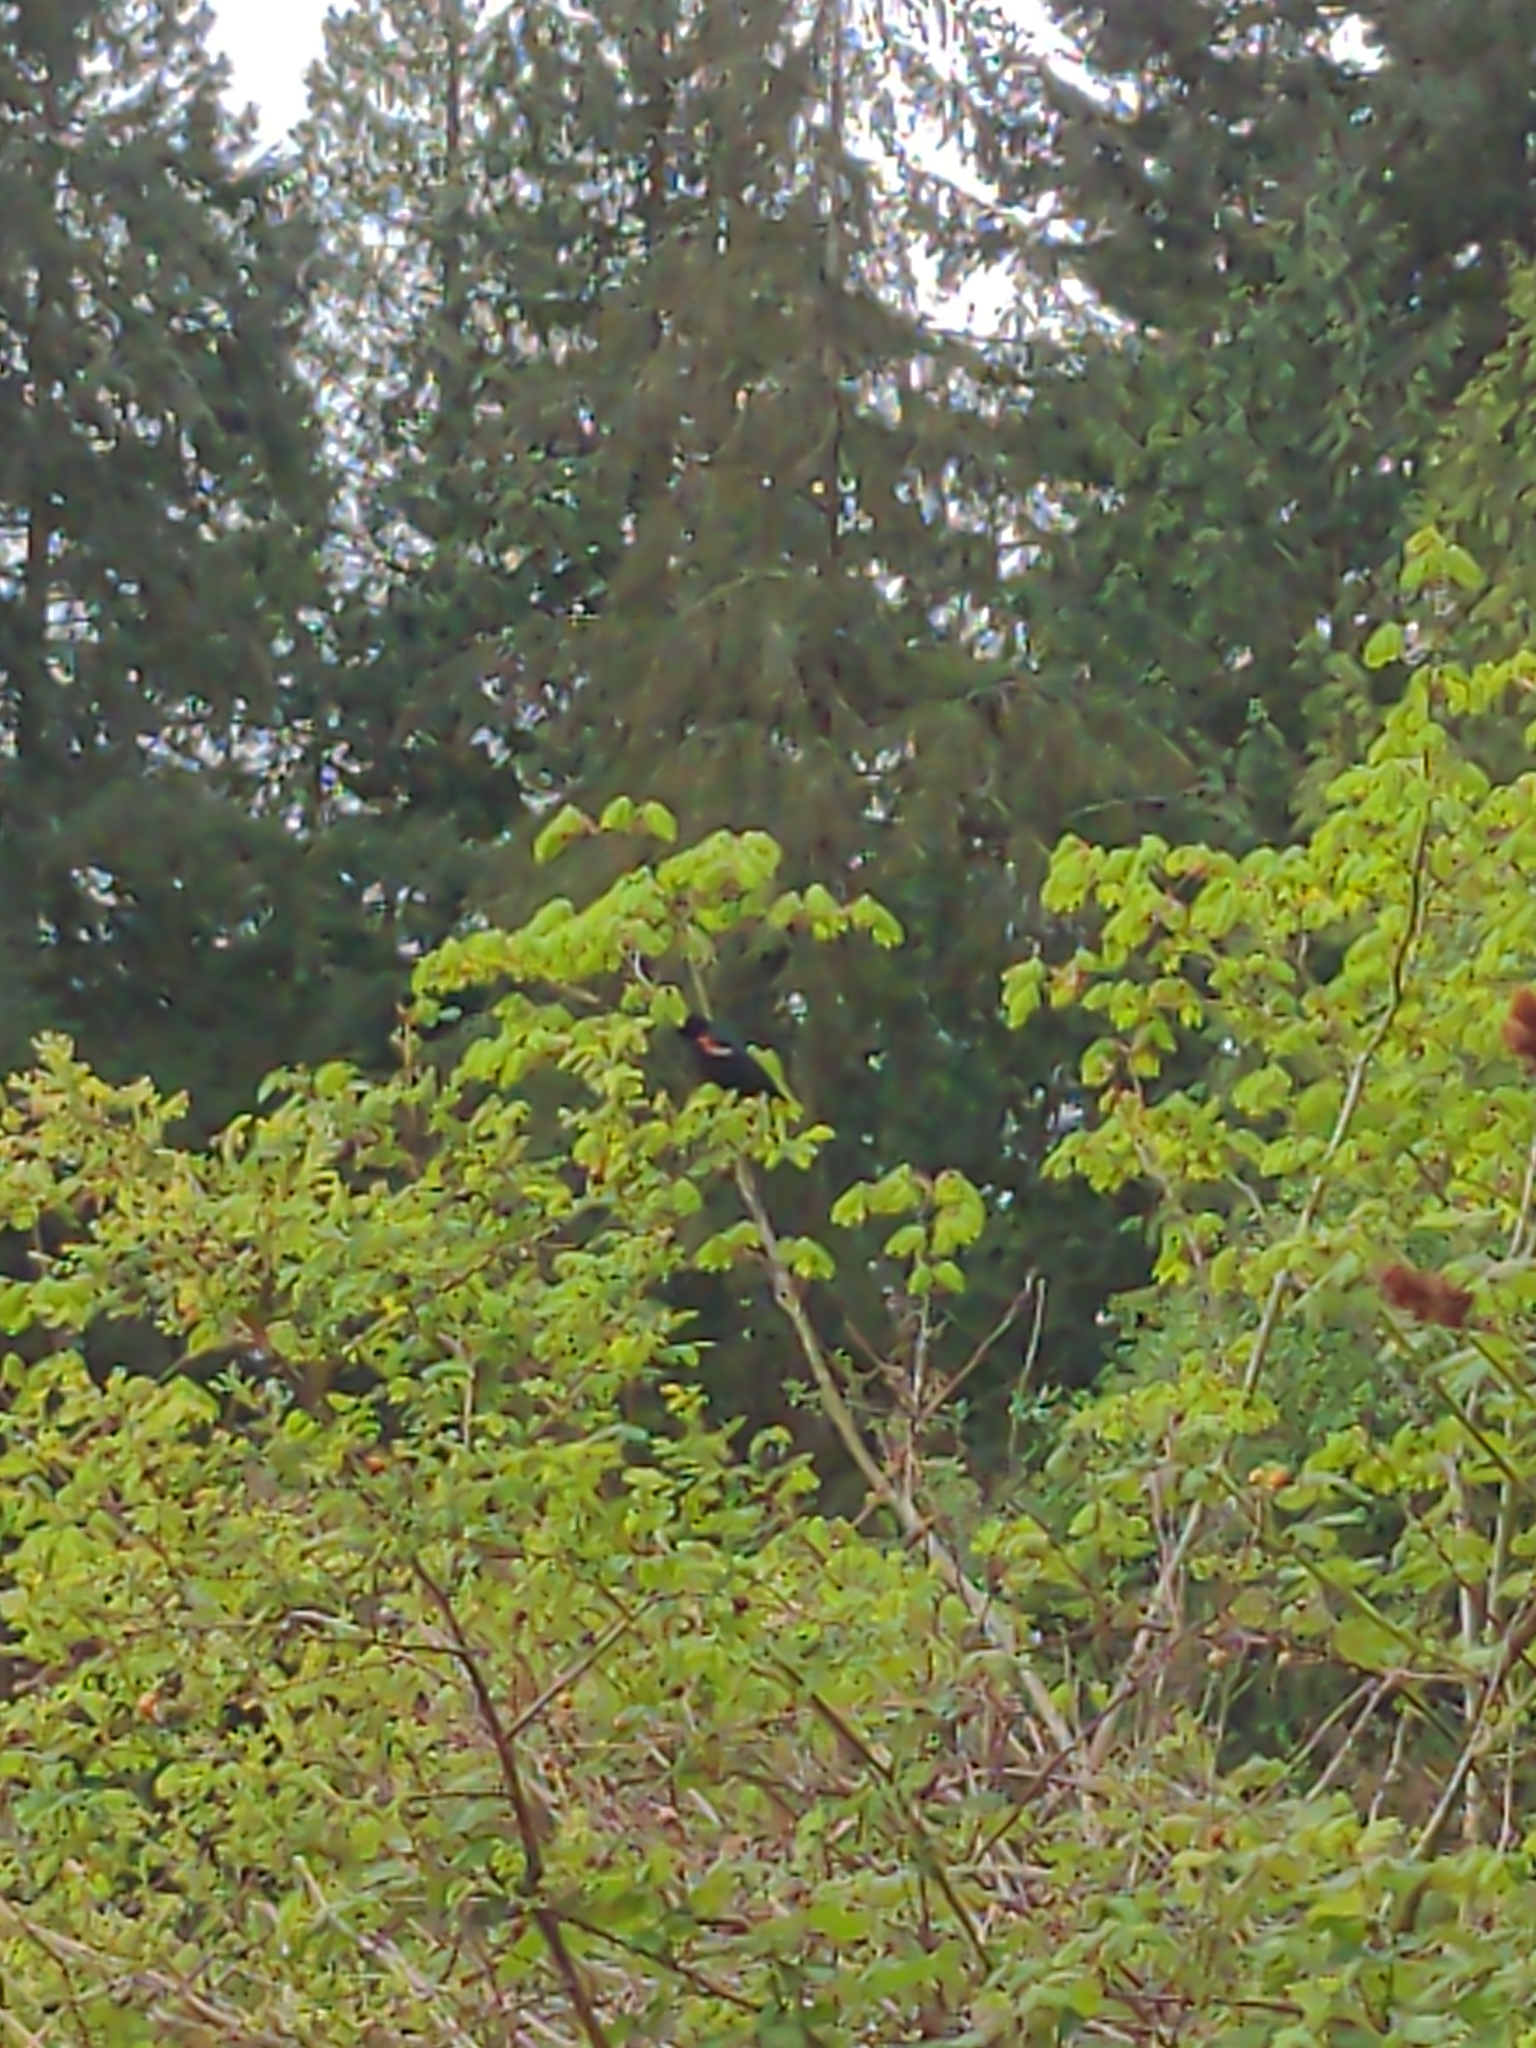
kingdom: Animalia
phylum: Chordata
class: Aves
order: Passeriformes
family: Icteridae
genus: Agelaius
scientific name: Agelaius phoeniceus
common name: Red-winged blackbird
